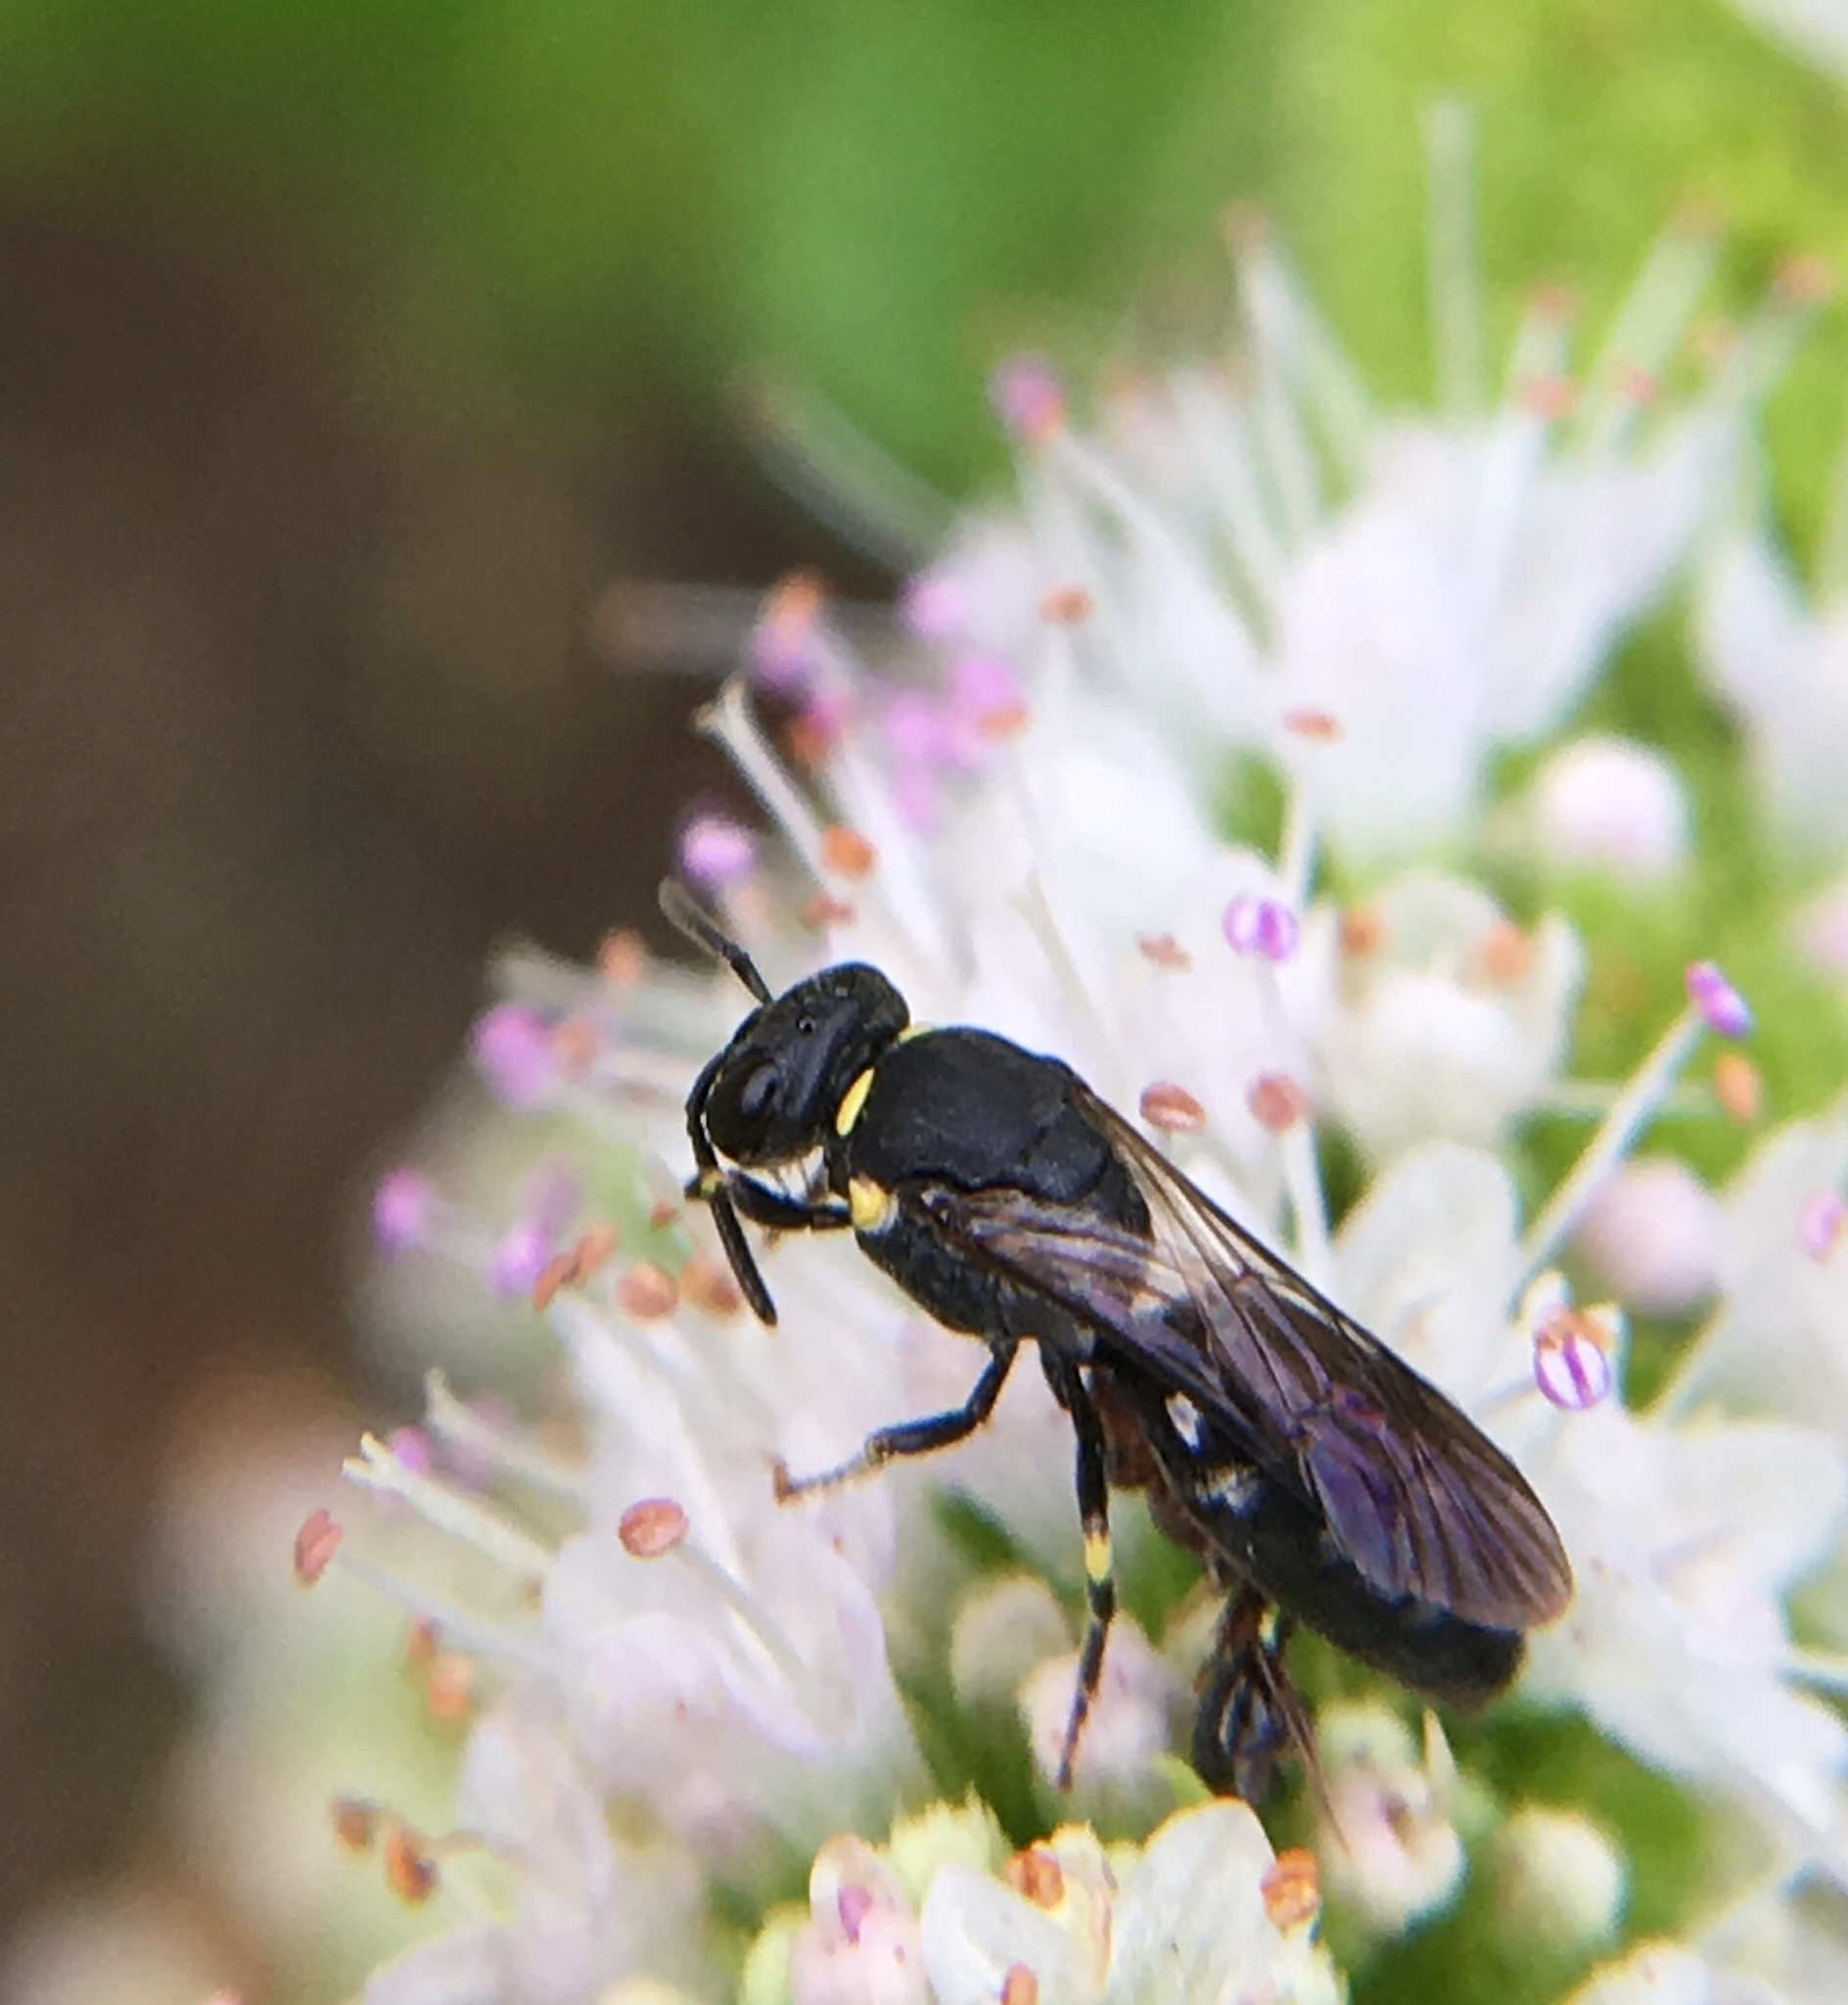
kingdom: Animalia
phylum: Arthropoda
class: Insecta
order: Hymenoptera
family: Colletidae
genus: Hylaeus
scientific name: Hylaeus modestus
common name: Yellow-faced bee
